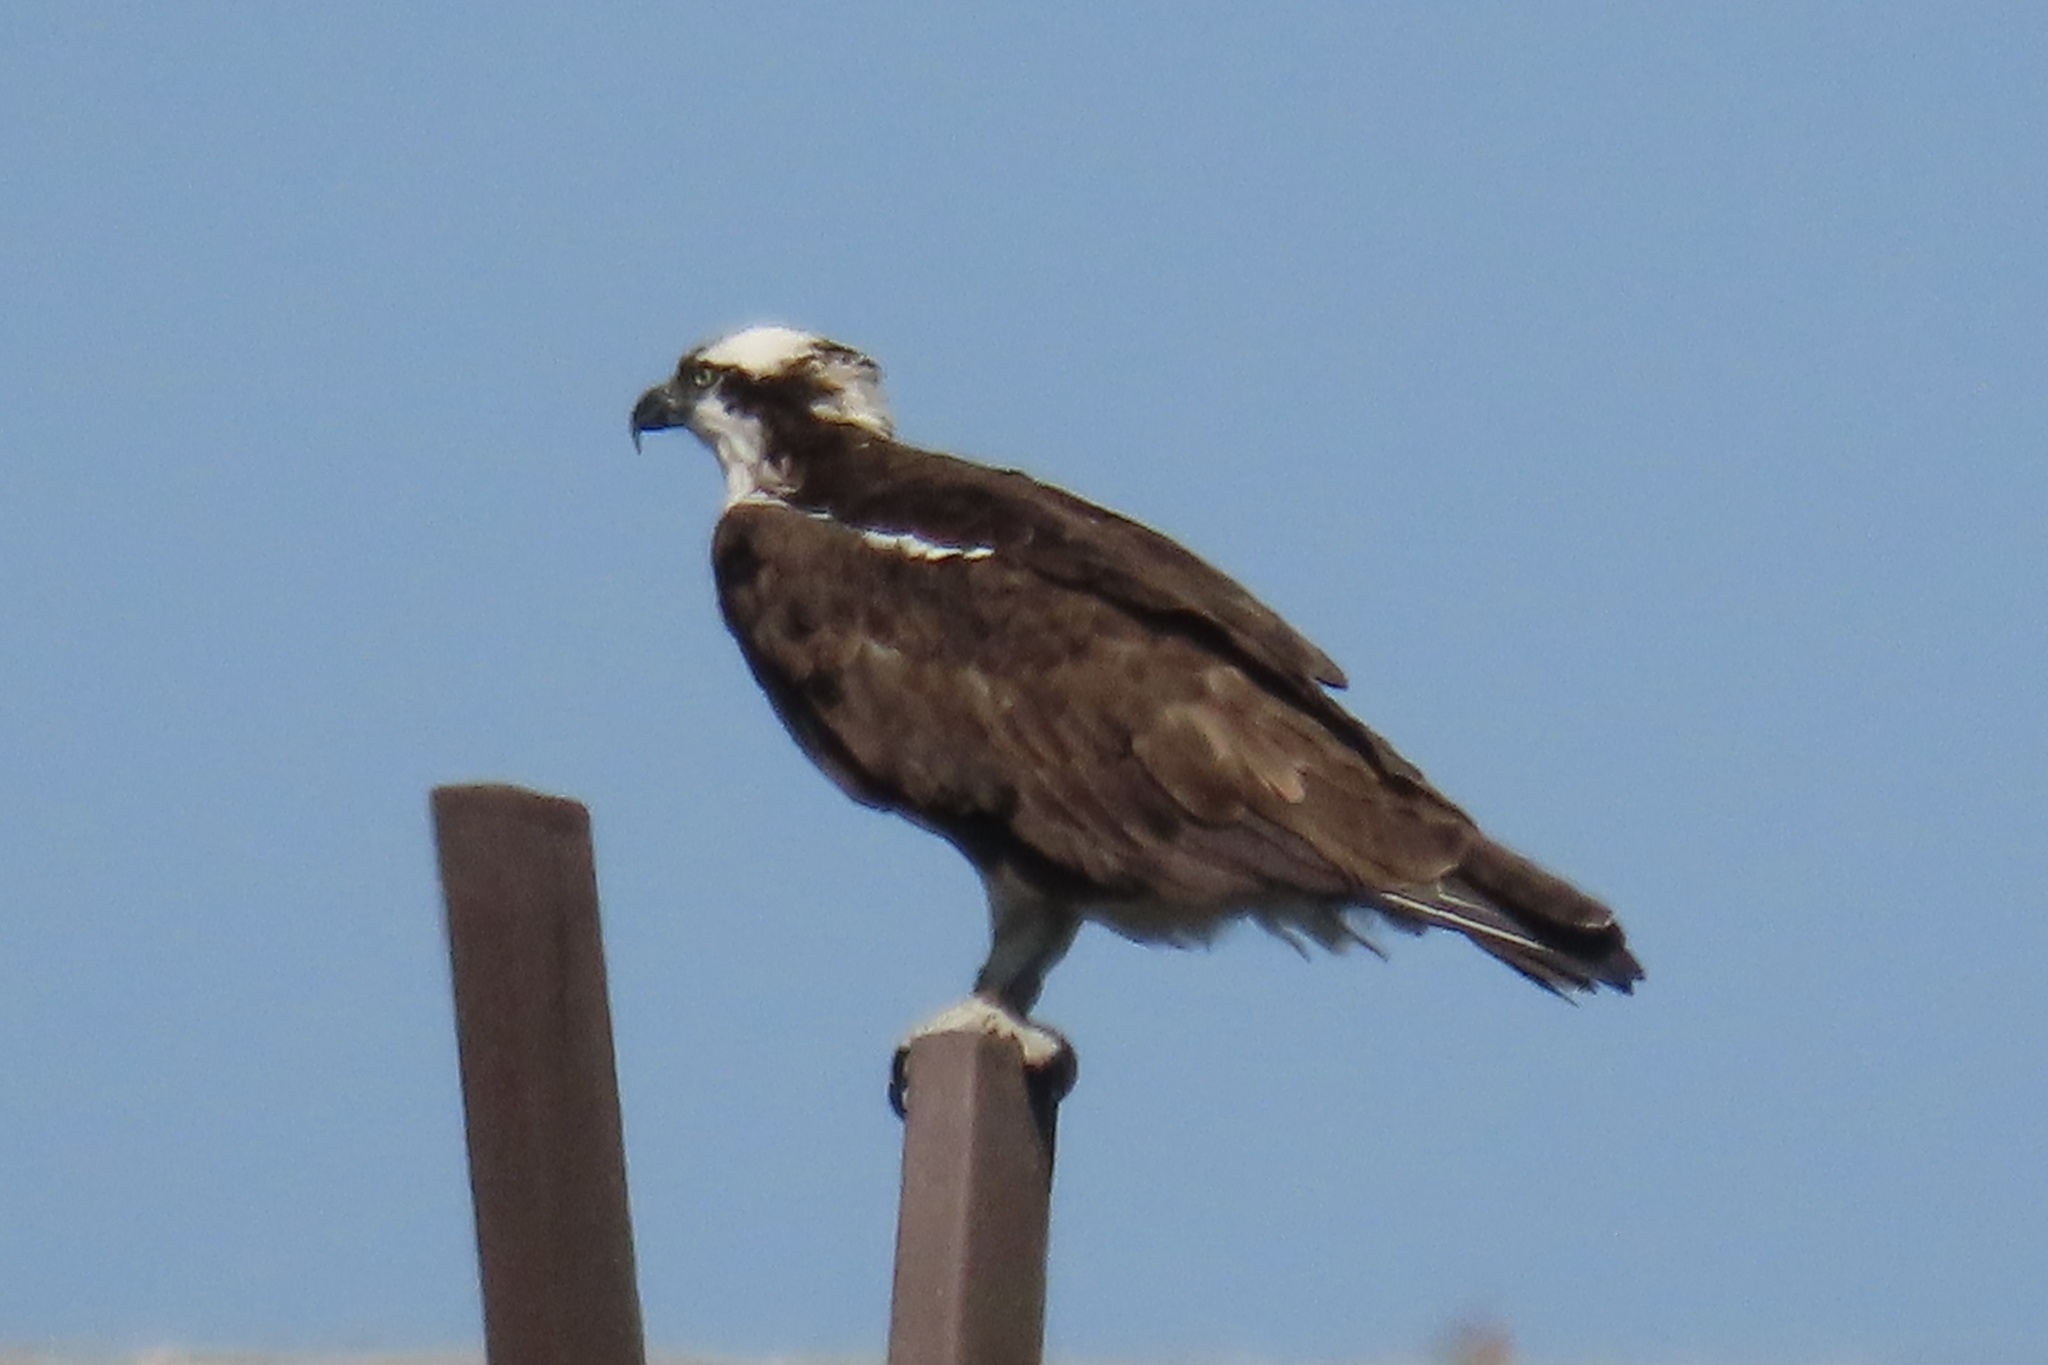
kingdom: Animalia
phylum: Chordata
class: Aves
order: Accipitriformes
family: Pandionidae
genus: Pandion
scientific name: Pandion haliaetus
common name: Osprey
